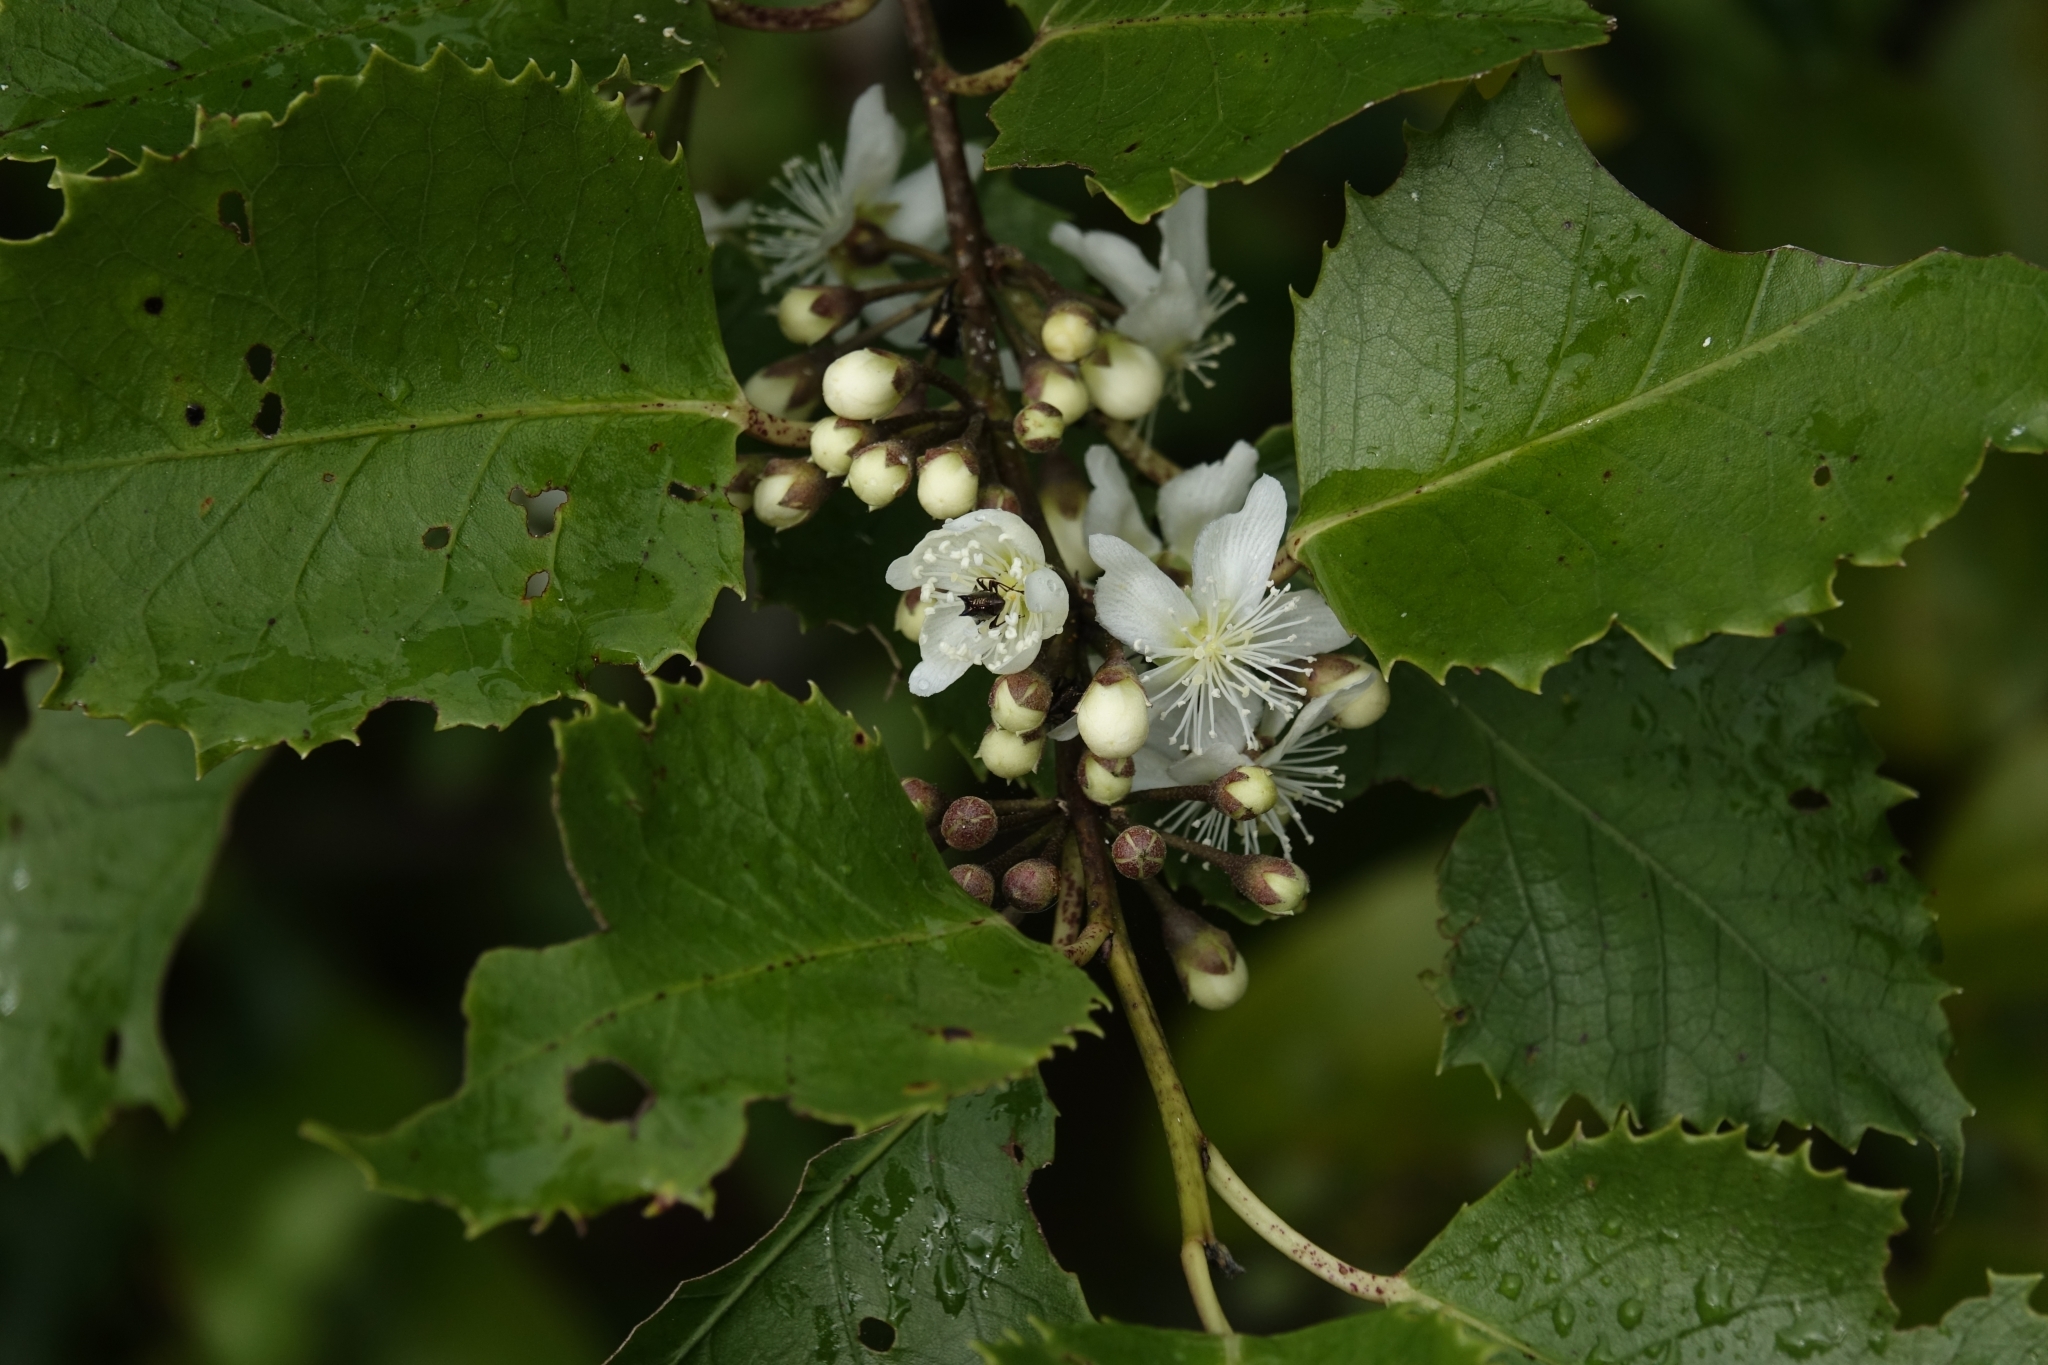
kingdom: Plantae
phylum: Tracheophyta
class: Magnoliopsida
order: Malvales
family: Malvaceae
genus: Hoheria
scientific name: Hoheria populnea
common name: Lacebark
